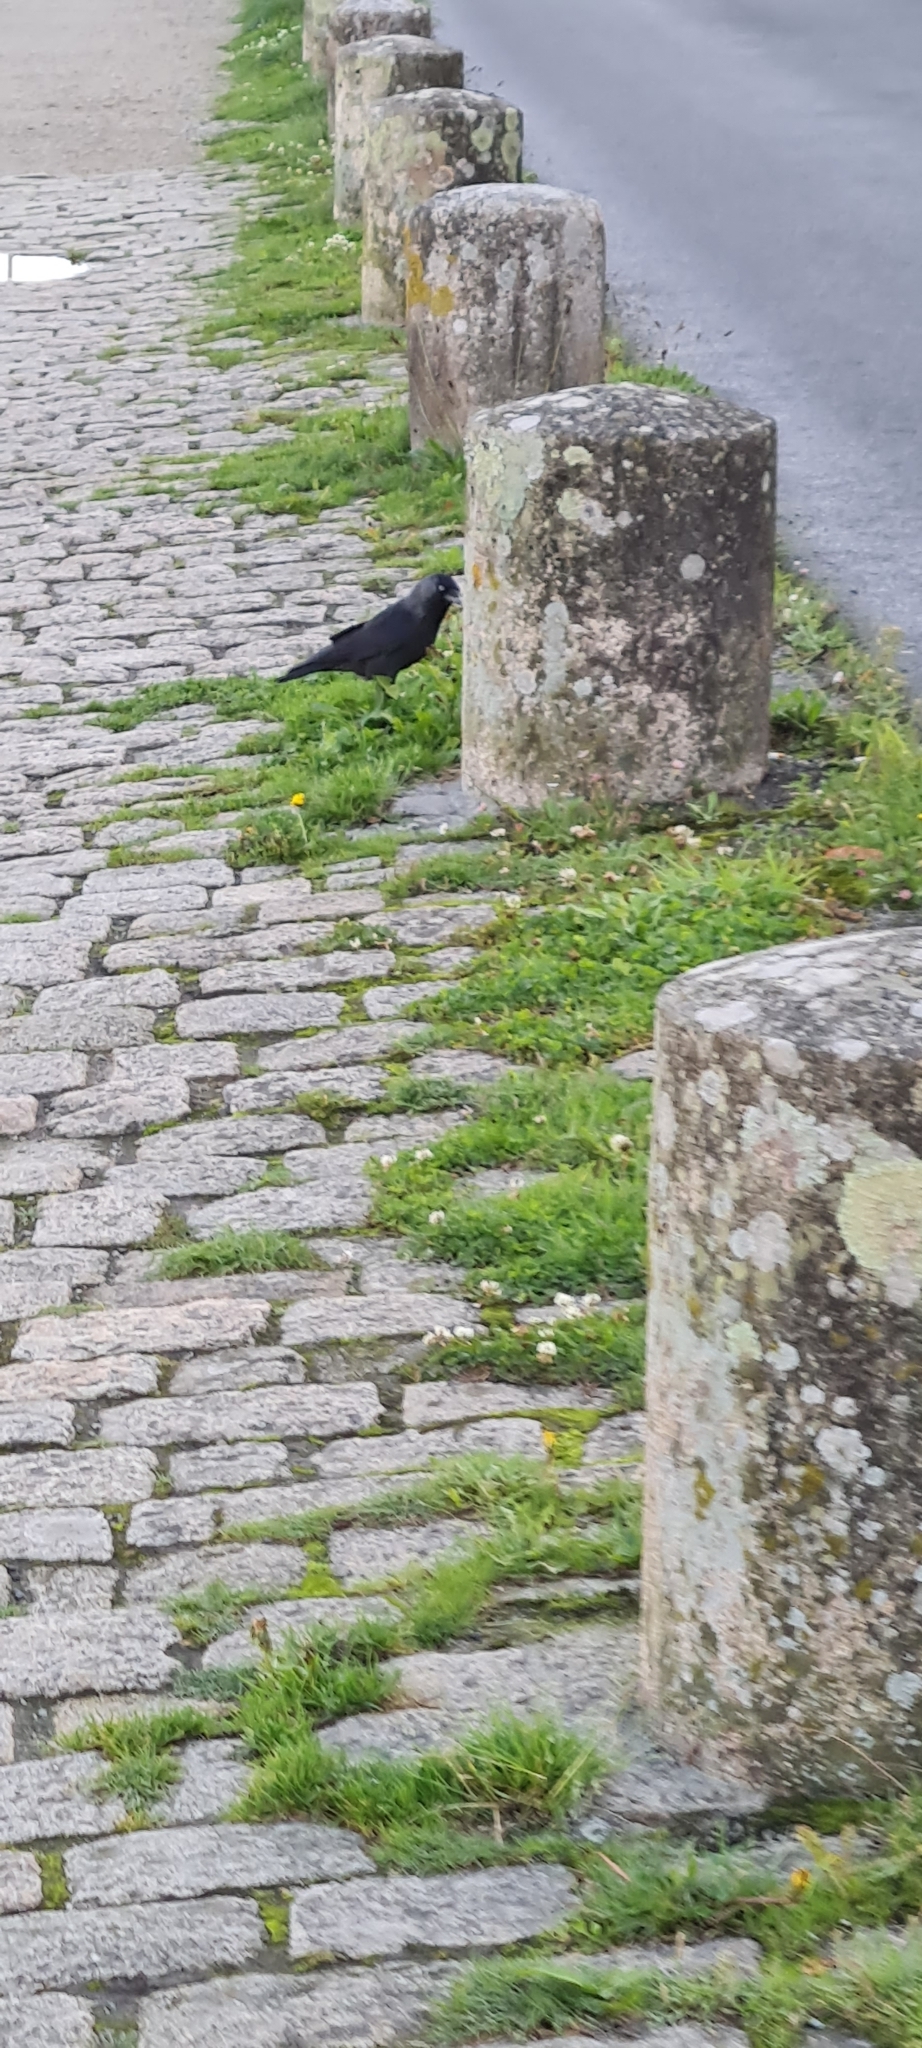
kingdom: Animalia
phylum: Chordata
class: Aves
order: Passeriformes
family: Corvidae
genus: Coloeus
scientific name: Coloeus monedula
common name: Western jackdaw
